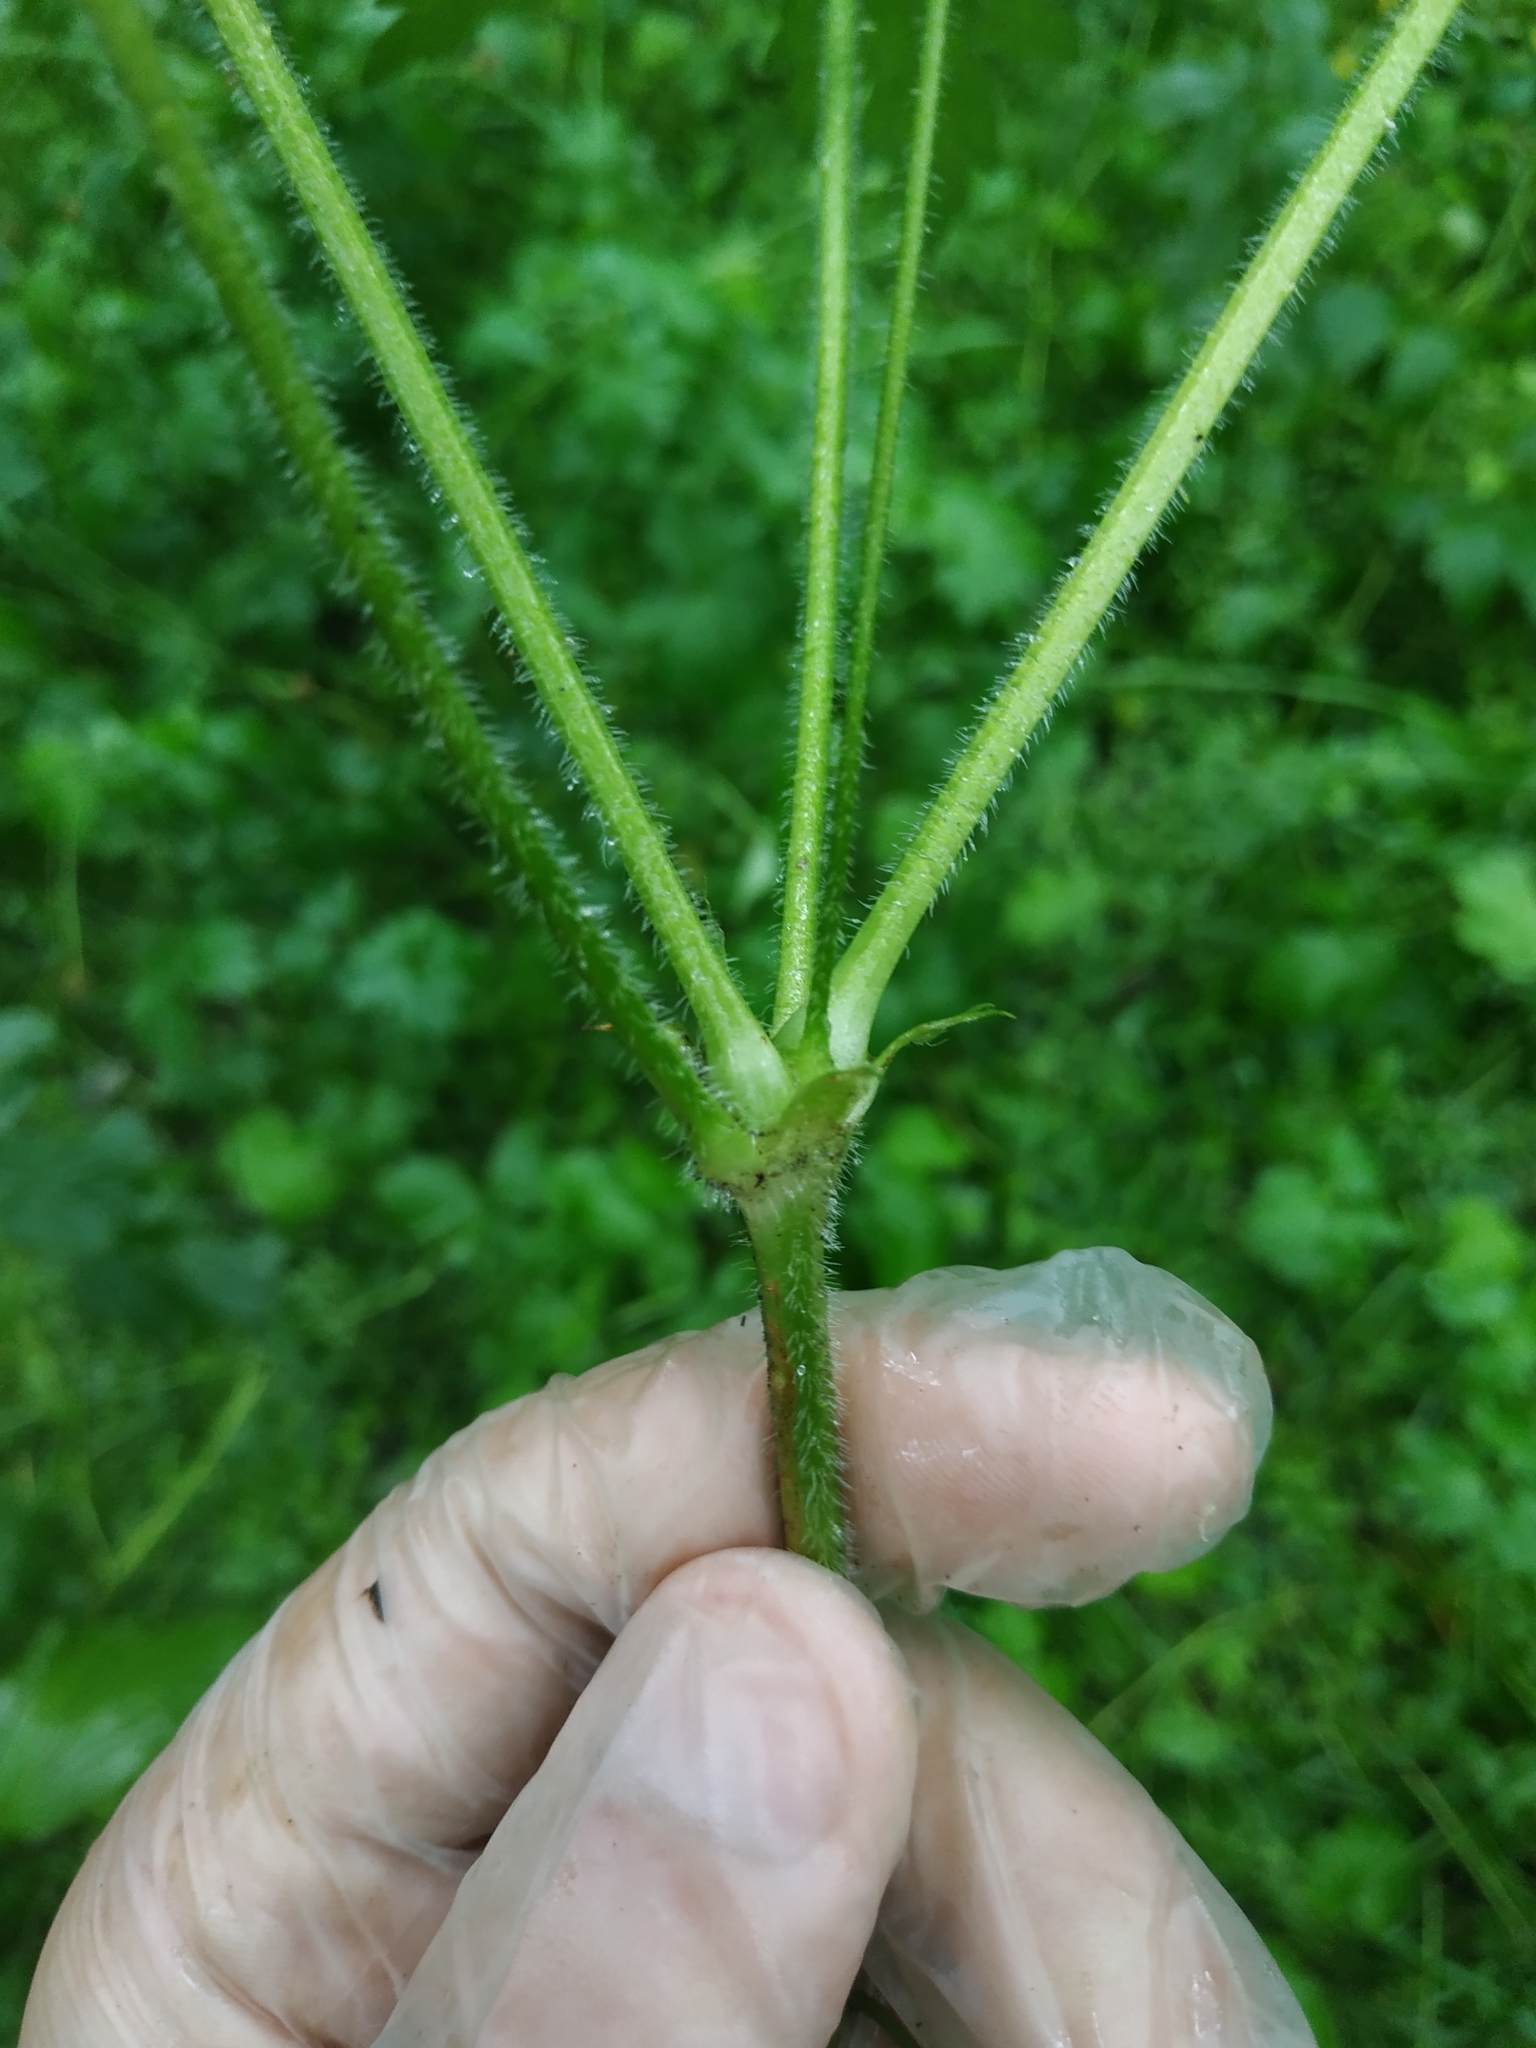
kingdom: Plantae
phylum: Tracheophyta
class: Magnoliopsida
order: Geraniales
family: Geraniaceae
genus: Geranium
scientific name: Geranium palustre
